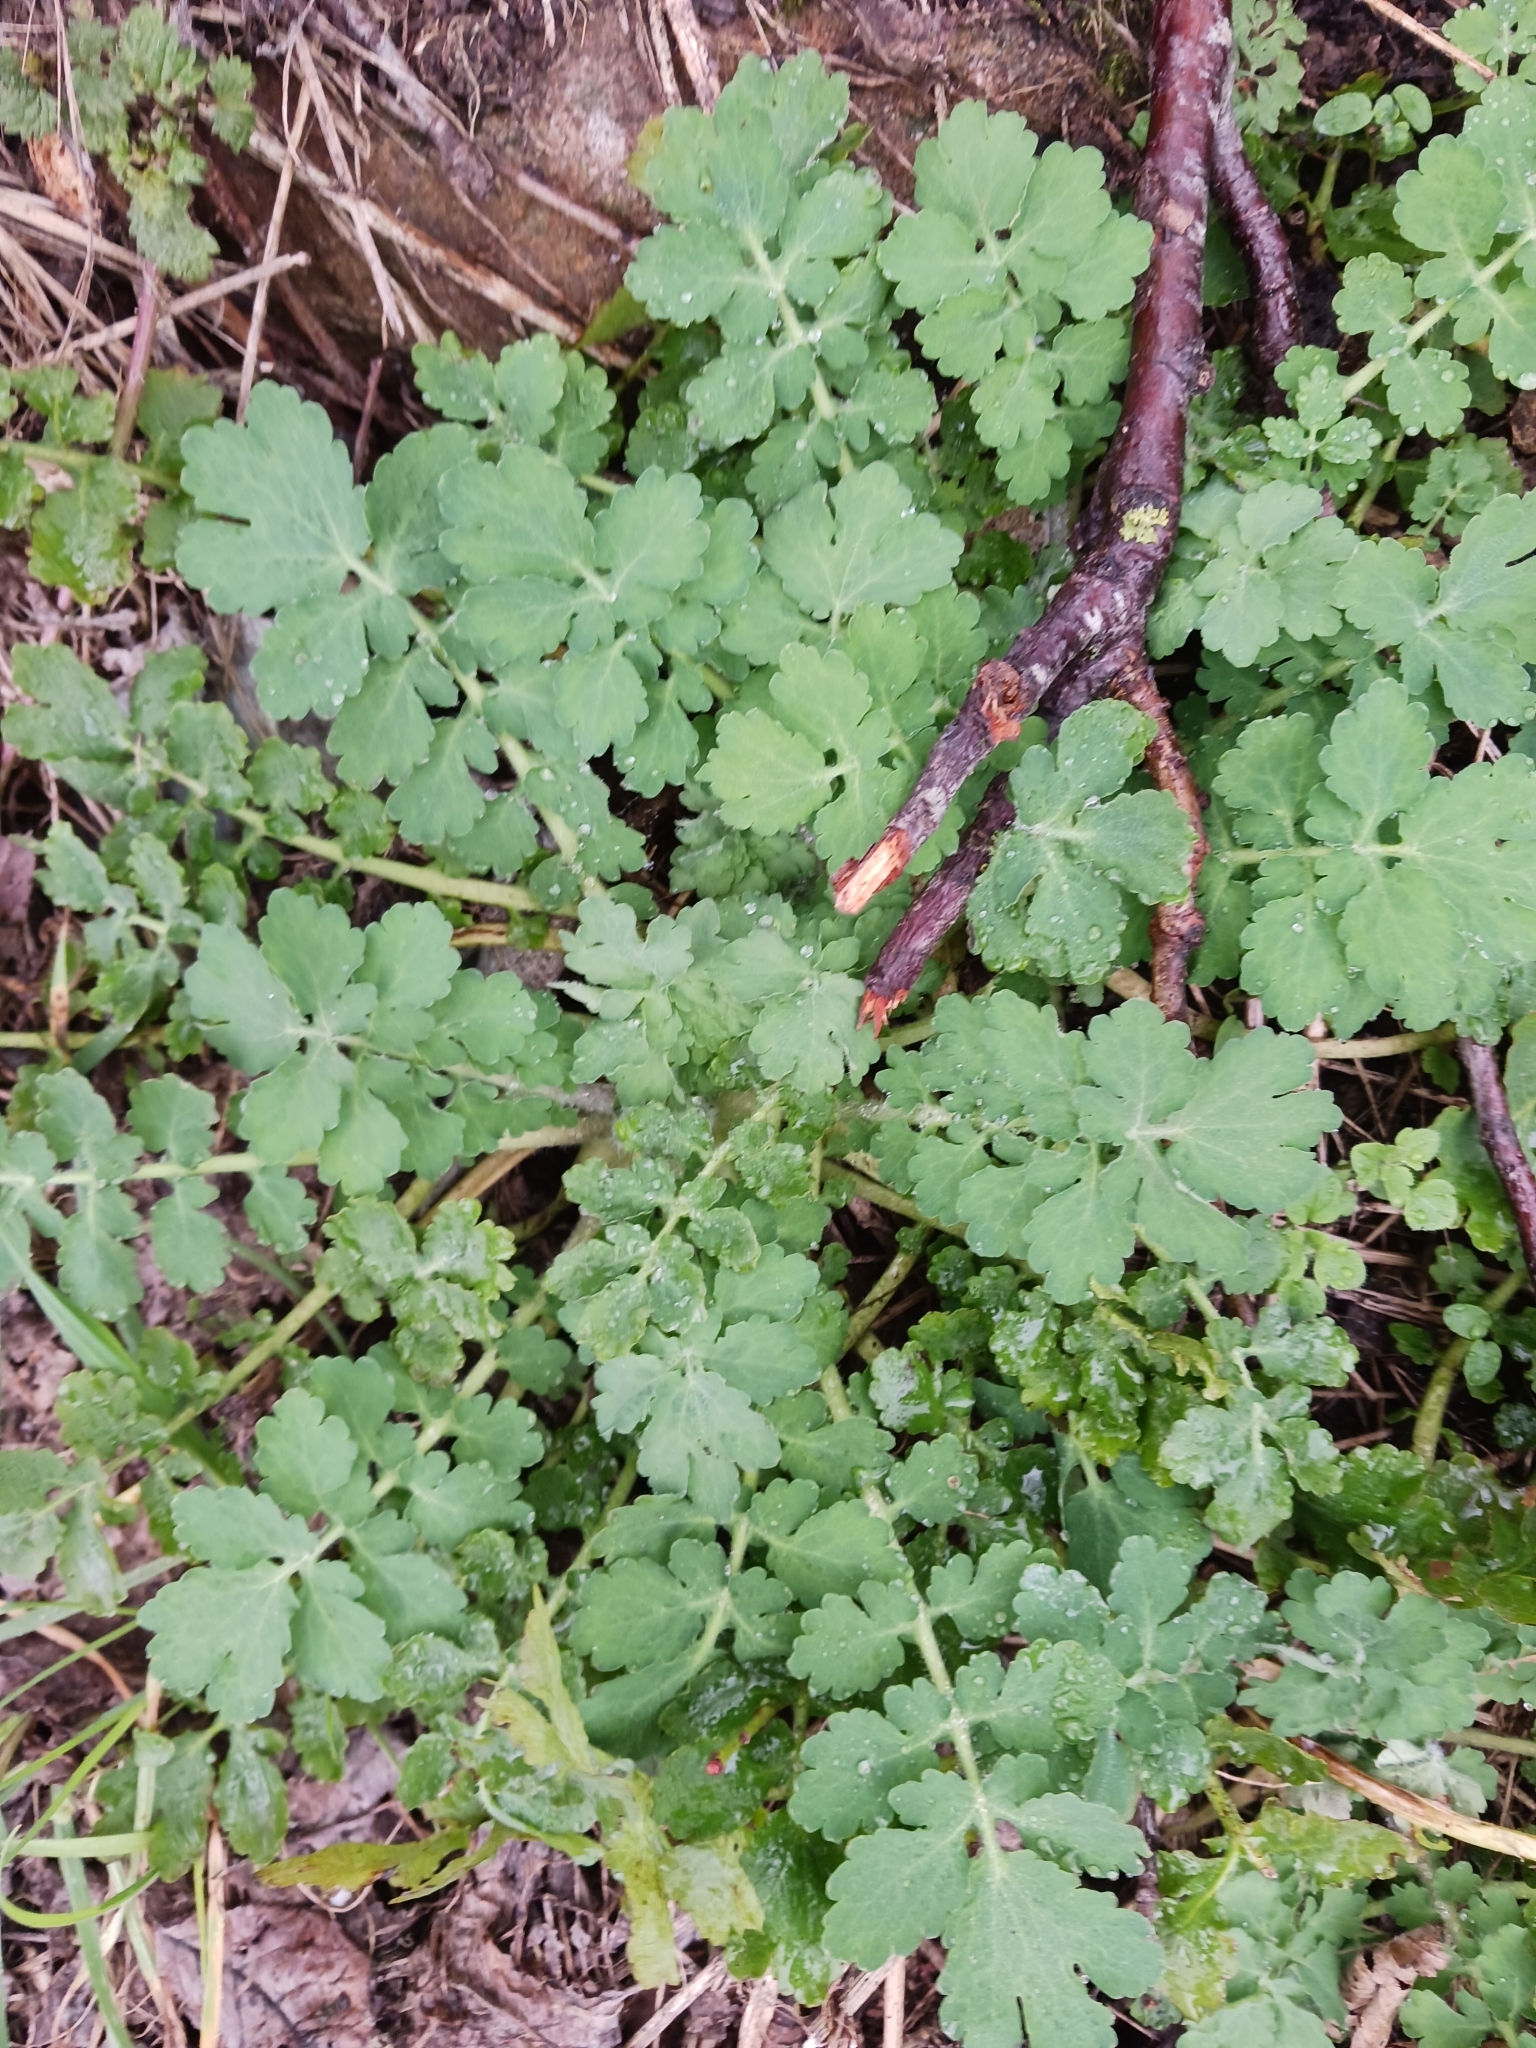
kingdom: Plantae
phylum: Tracheophyta
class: Magnoliopsida
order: Ranunculales
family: Papaveraceae
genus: Chelidonium
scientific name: Chelidonium majus
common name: Greater celandine
